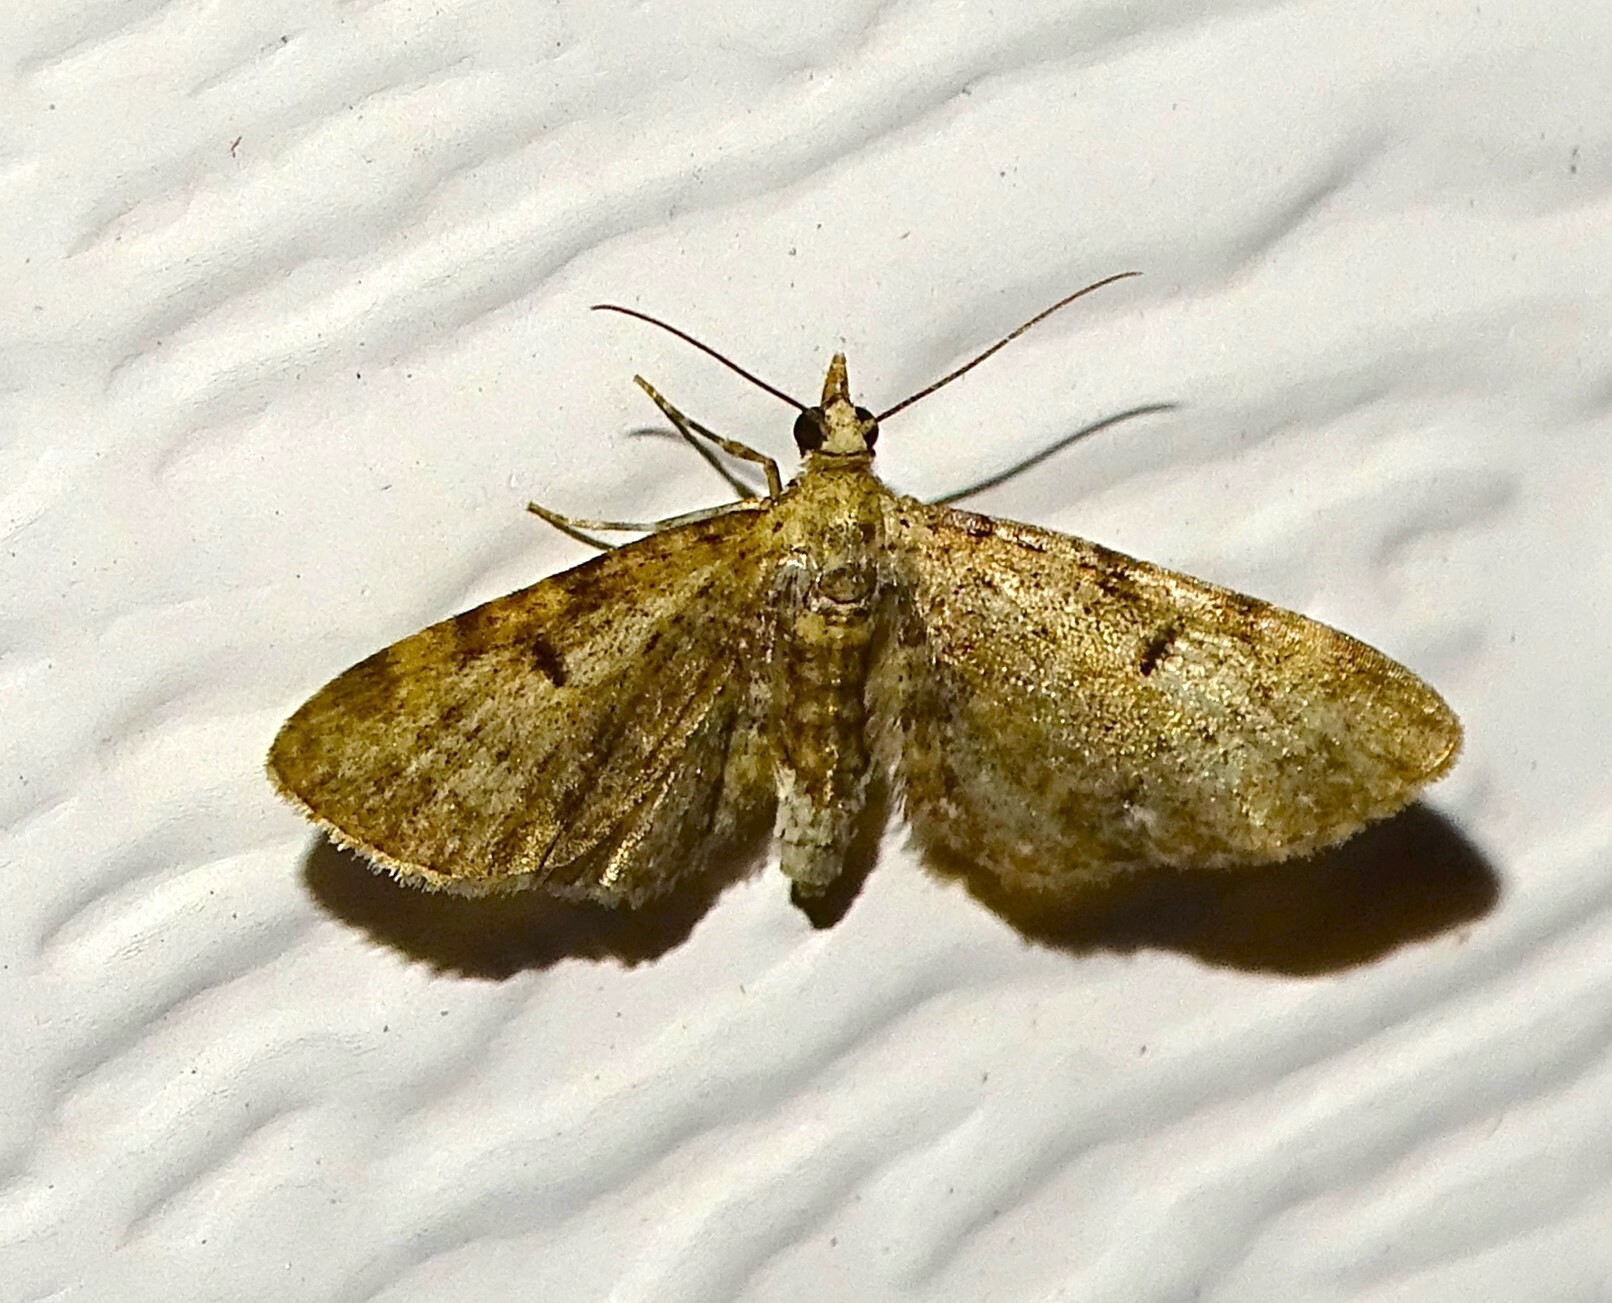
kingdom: Animalia
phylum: Arthropoda
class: Insecta
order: Lepidoptera
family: Geometridae
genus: Eupithecia
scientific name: Eupithecia miserulata
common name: Common eupithecia
